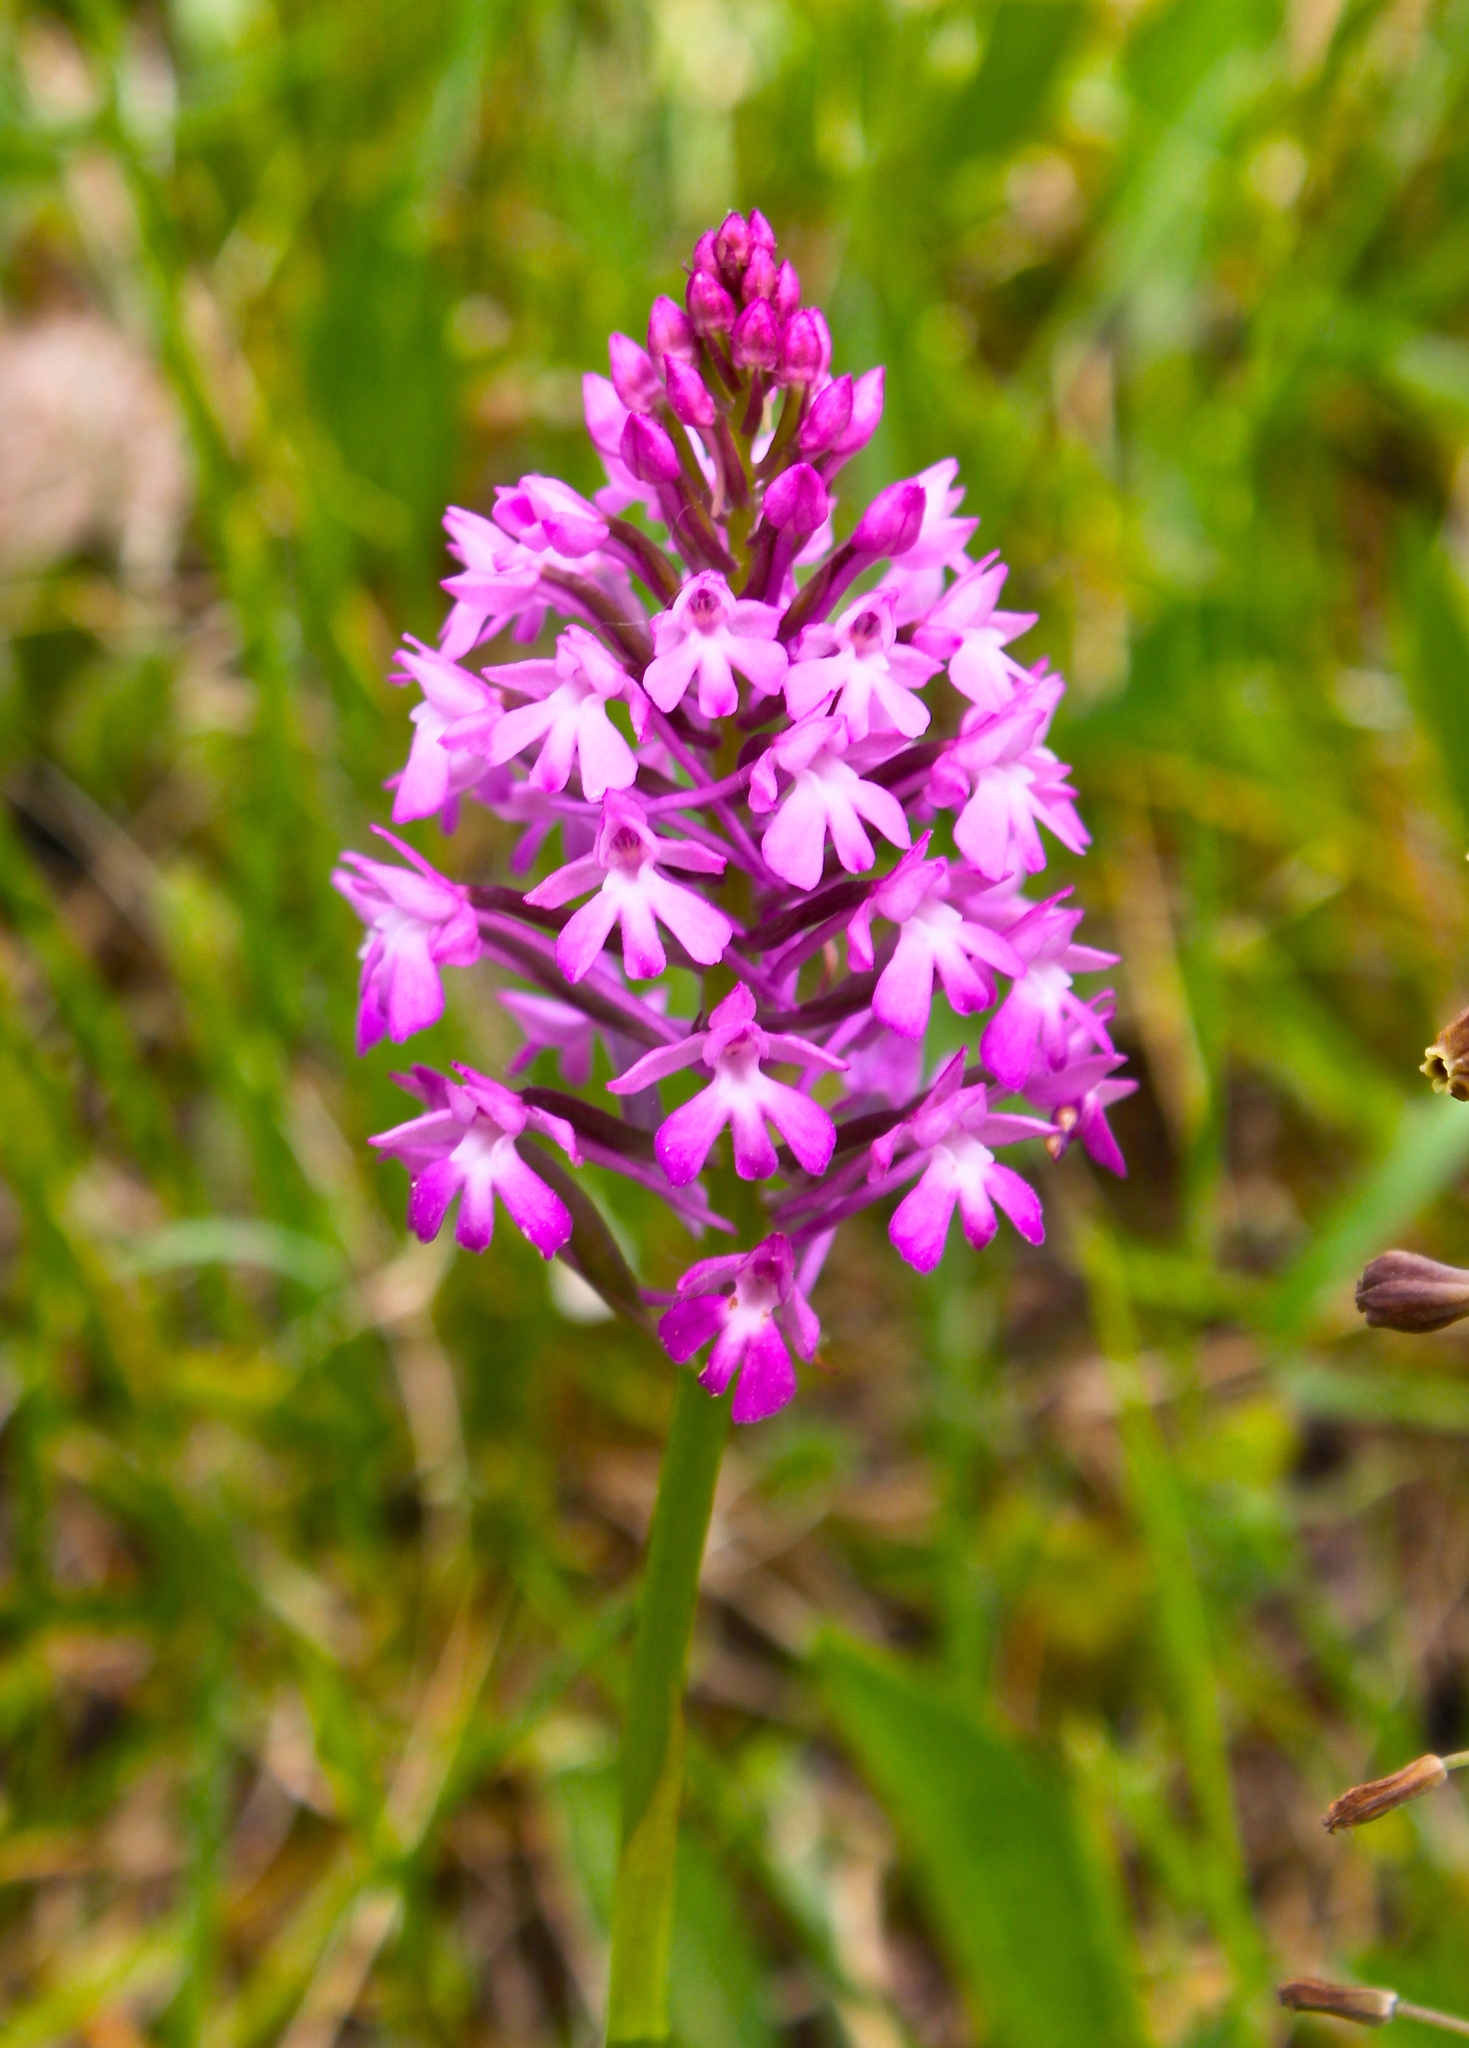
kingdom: Plantae
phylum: Tracheophyta
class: Liliopsida
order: Asparagales
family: Orchidaceae
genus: Anacamptis
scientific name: Anacamptis pyramidalis
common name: Pyramidal orchid
